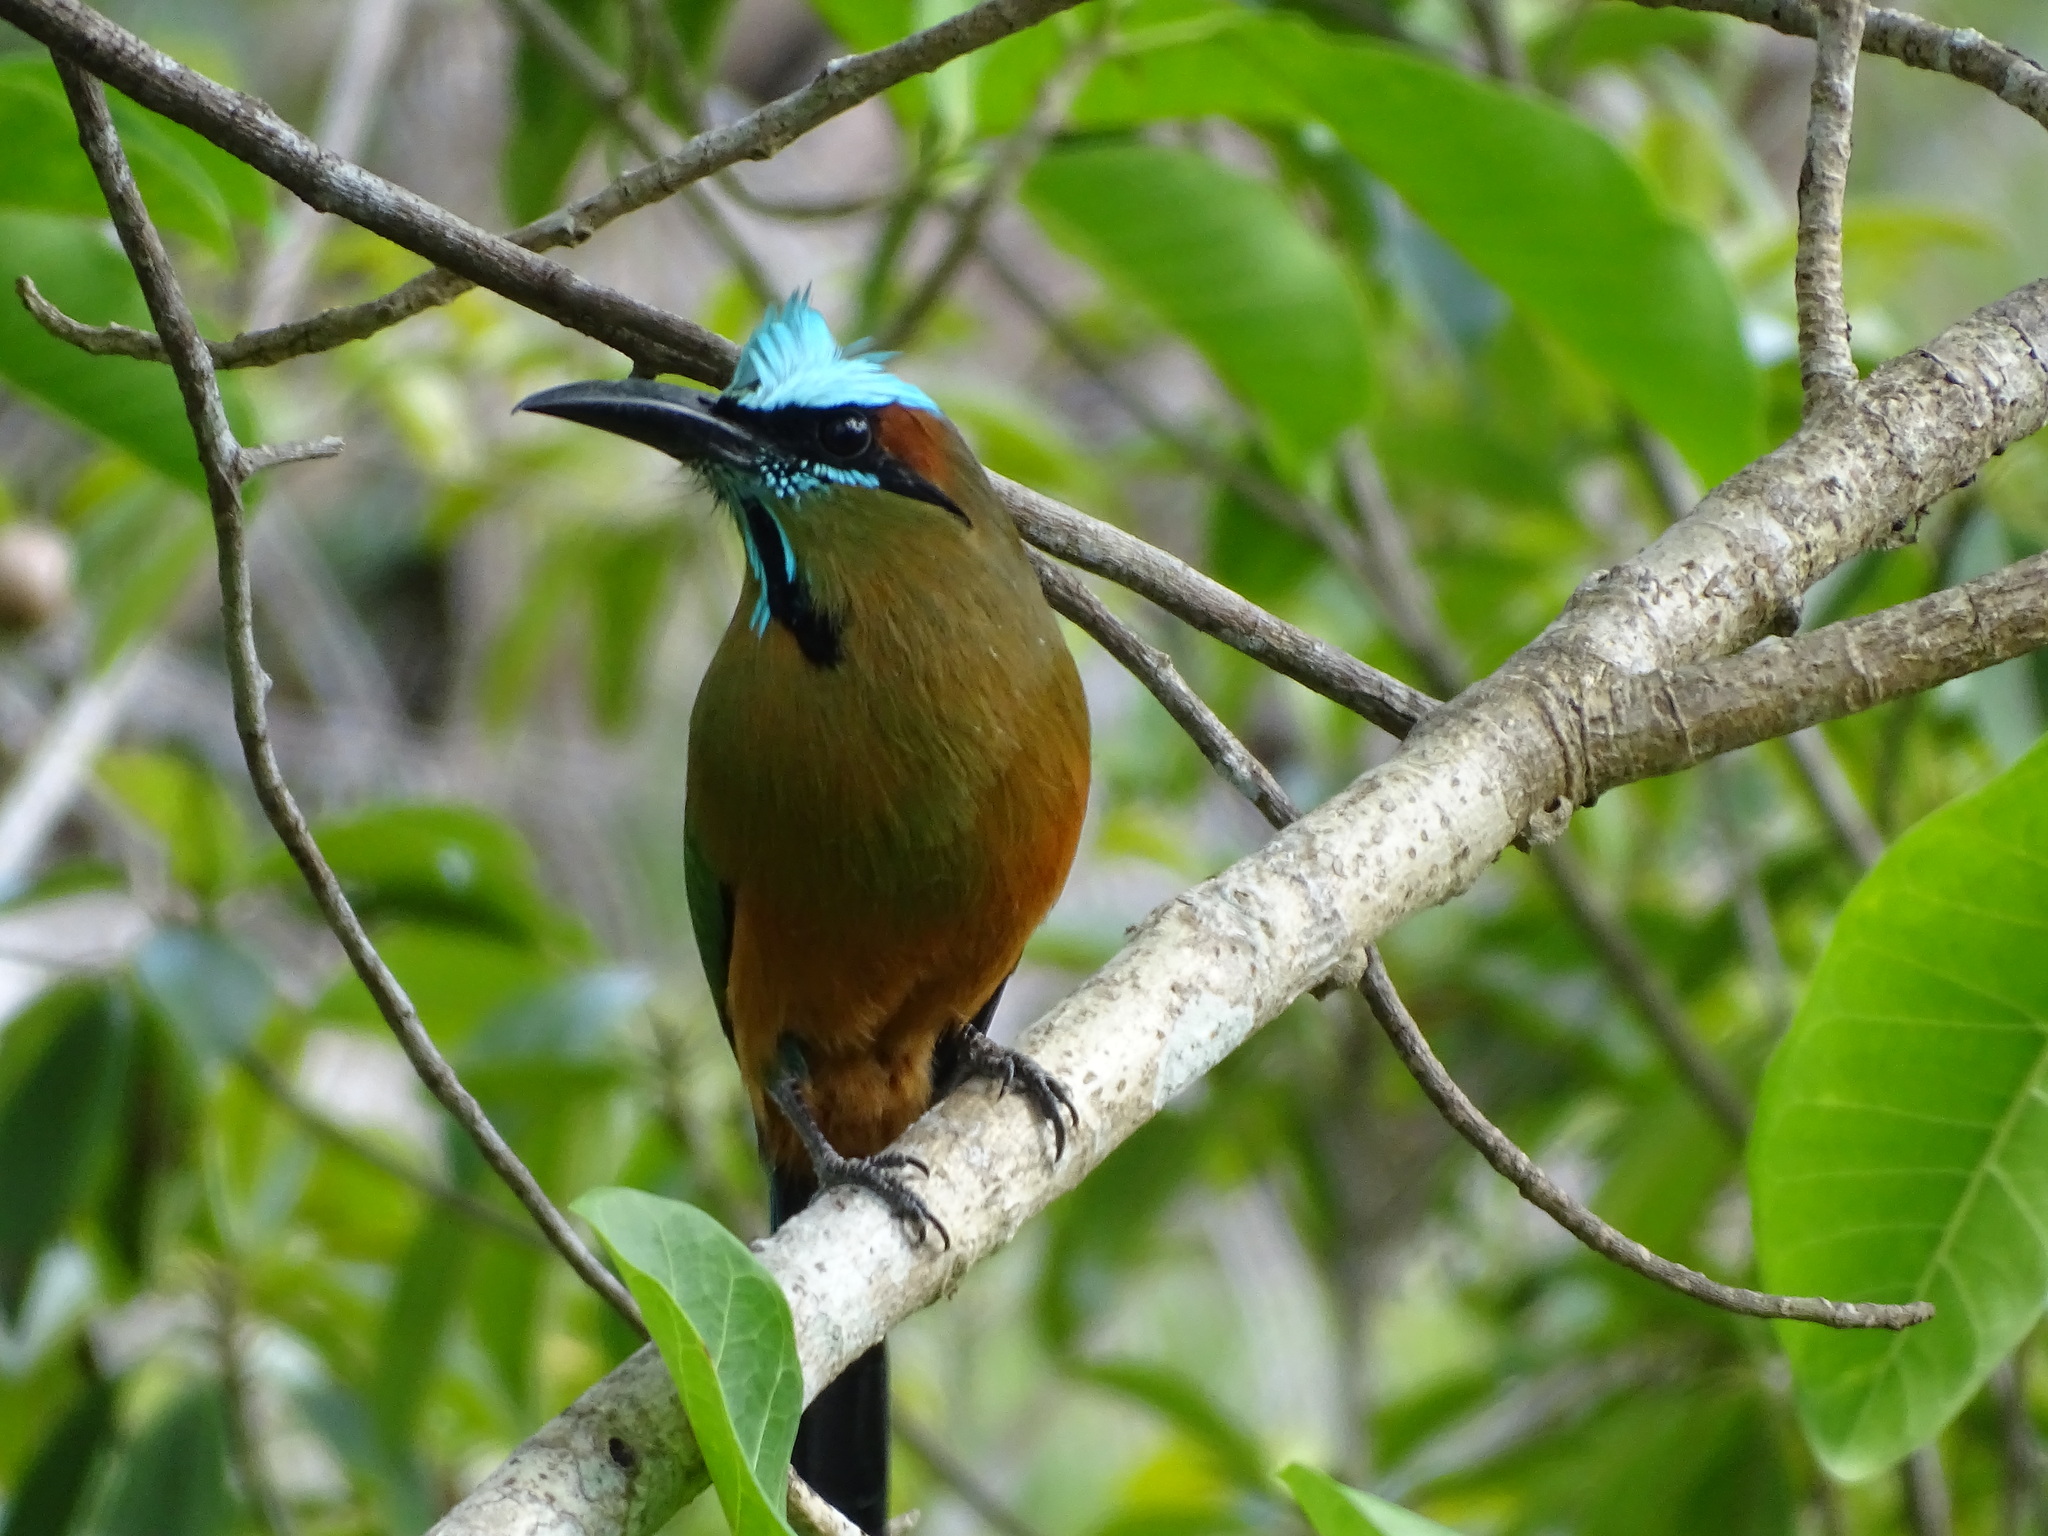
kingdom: Animalia
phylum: Chordata
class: Aves
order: Coraciiformes
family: Momotidae
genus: Eumomota
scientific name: Eumomota superciliosa
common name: Turquoise-browed motmot
